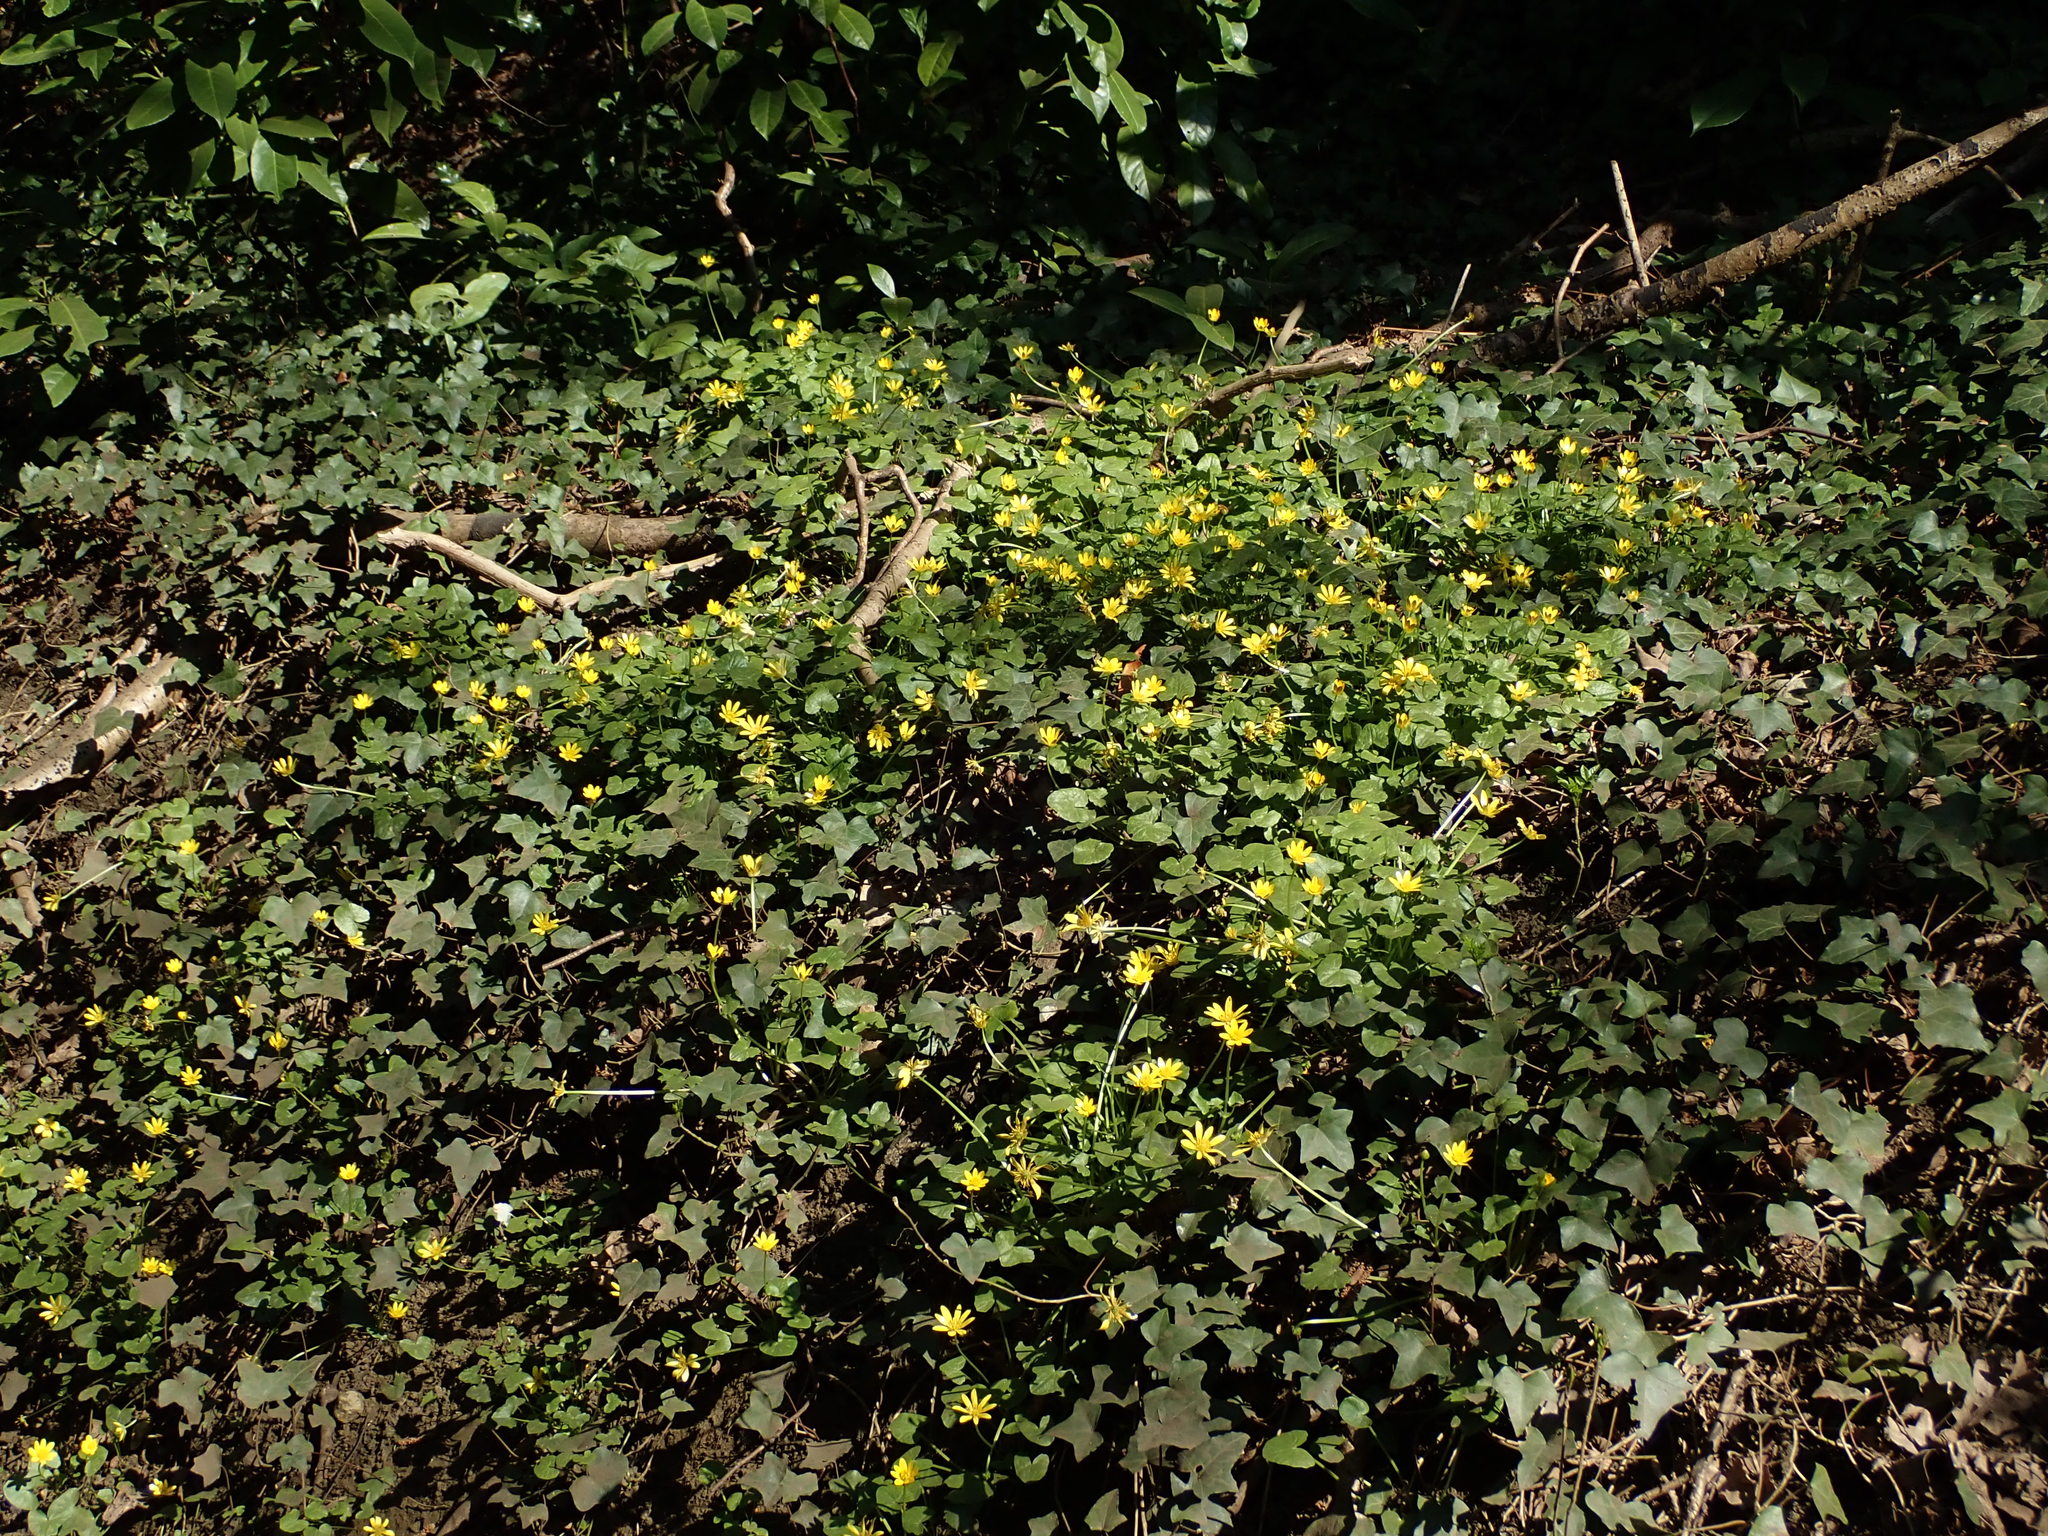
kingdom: Plantae
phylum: Tracheophyta
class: Magnoliopsida
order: Ranunculales
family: Ranunculaceae
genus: Ficaria
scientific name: Ficaria verna
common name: Lesser celandine
